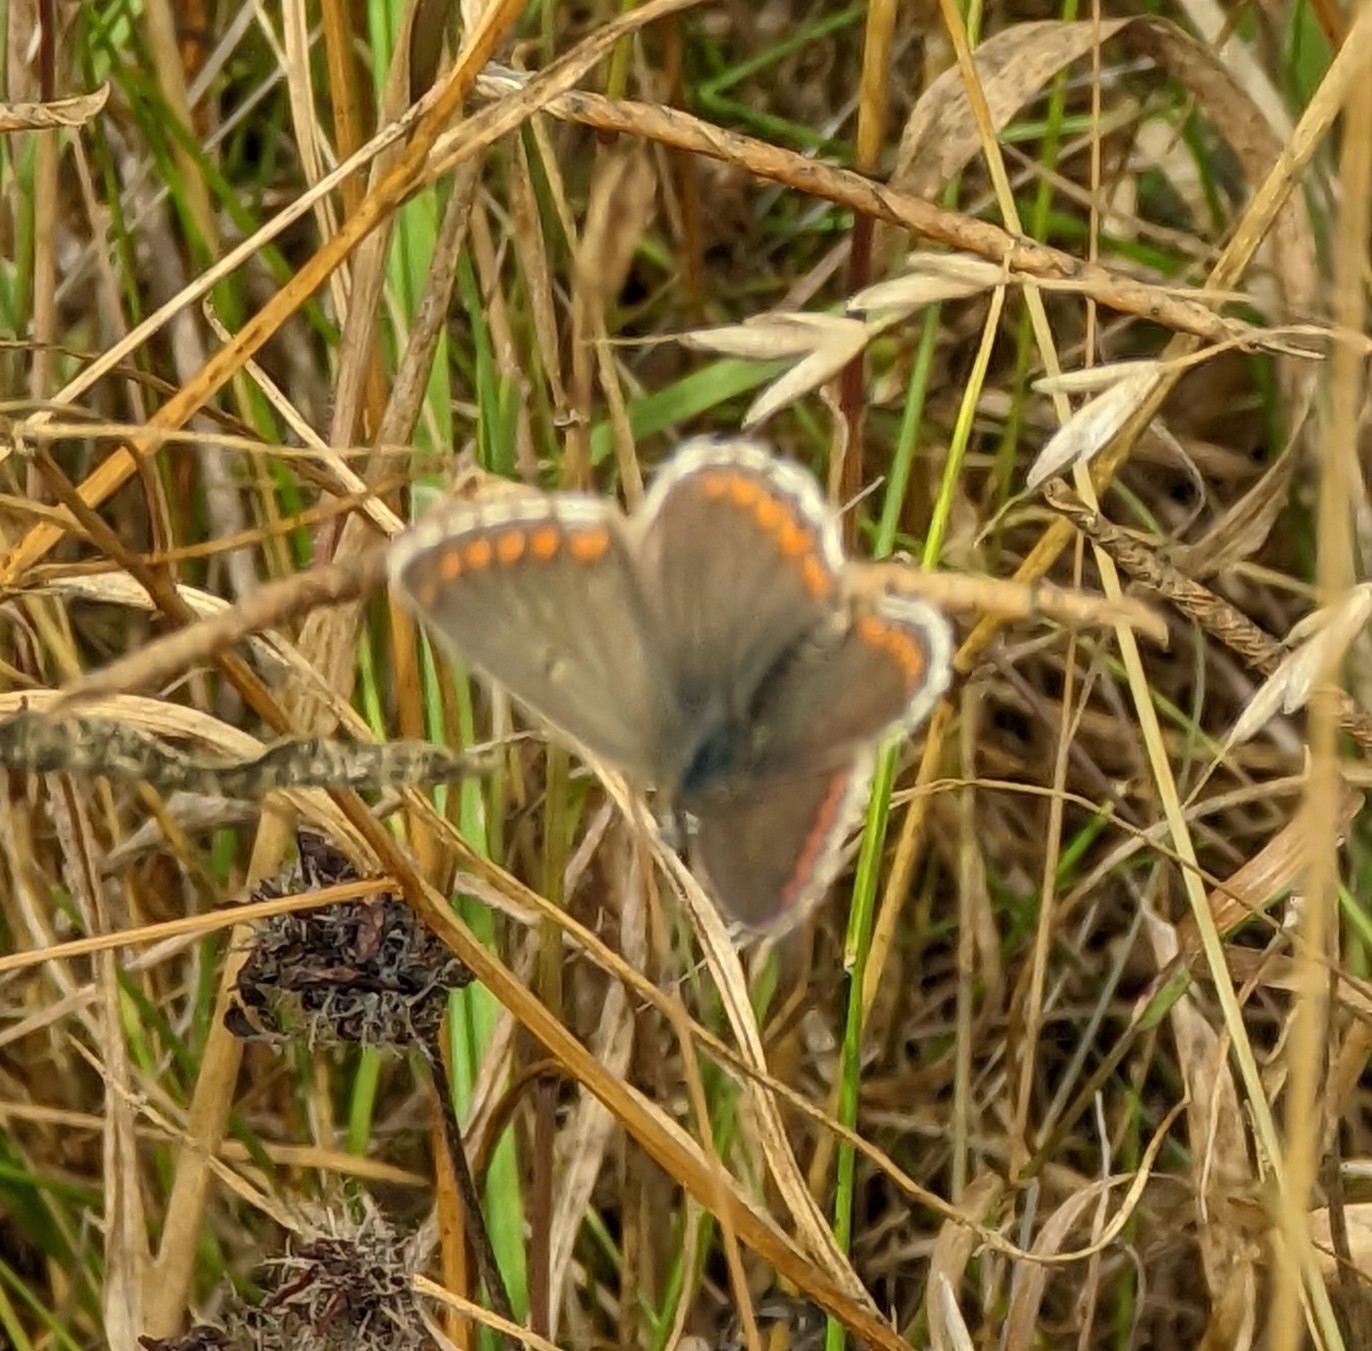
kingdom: Animalia
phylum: Arthropoda
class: Insecta
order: Lepidoptera
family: Lycaenidae
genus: Aricia
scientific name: Aricia agestis
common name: Brown argus
